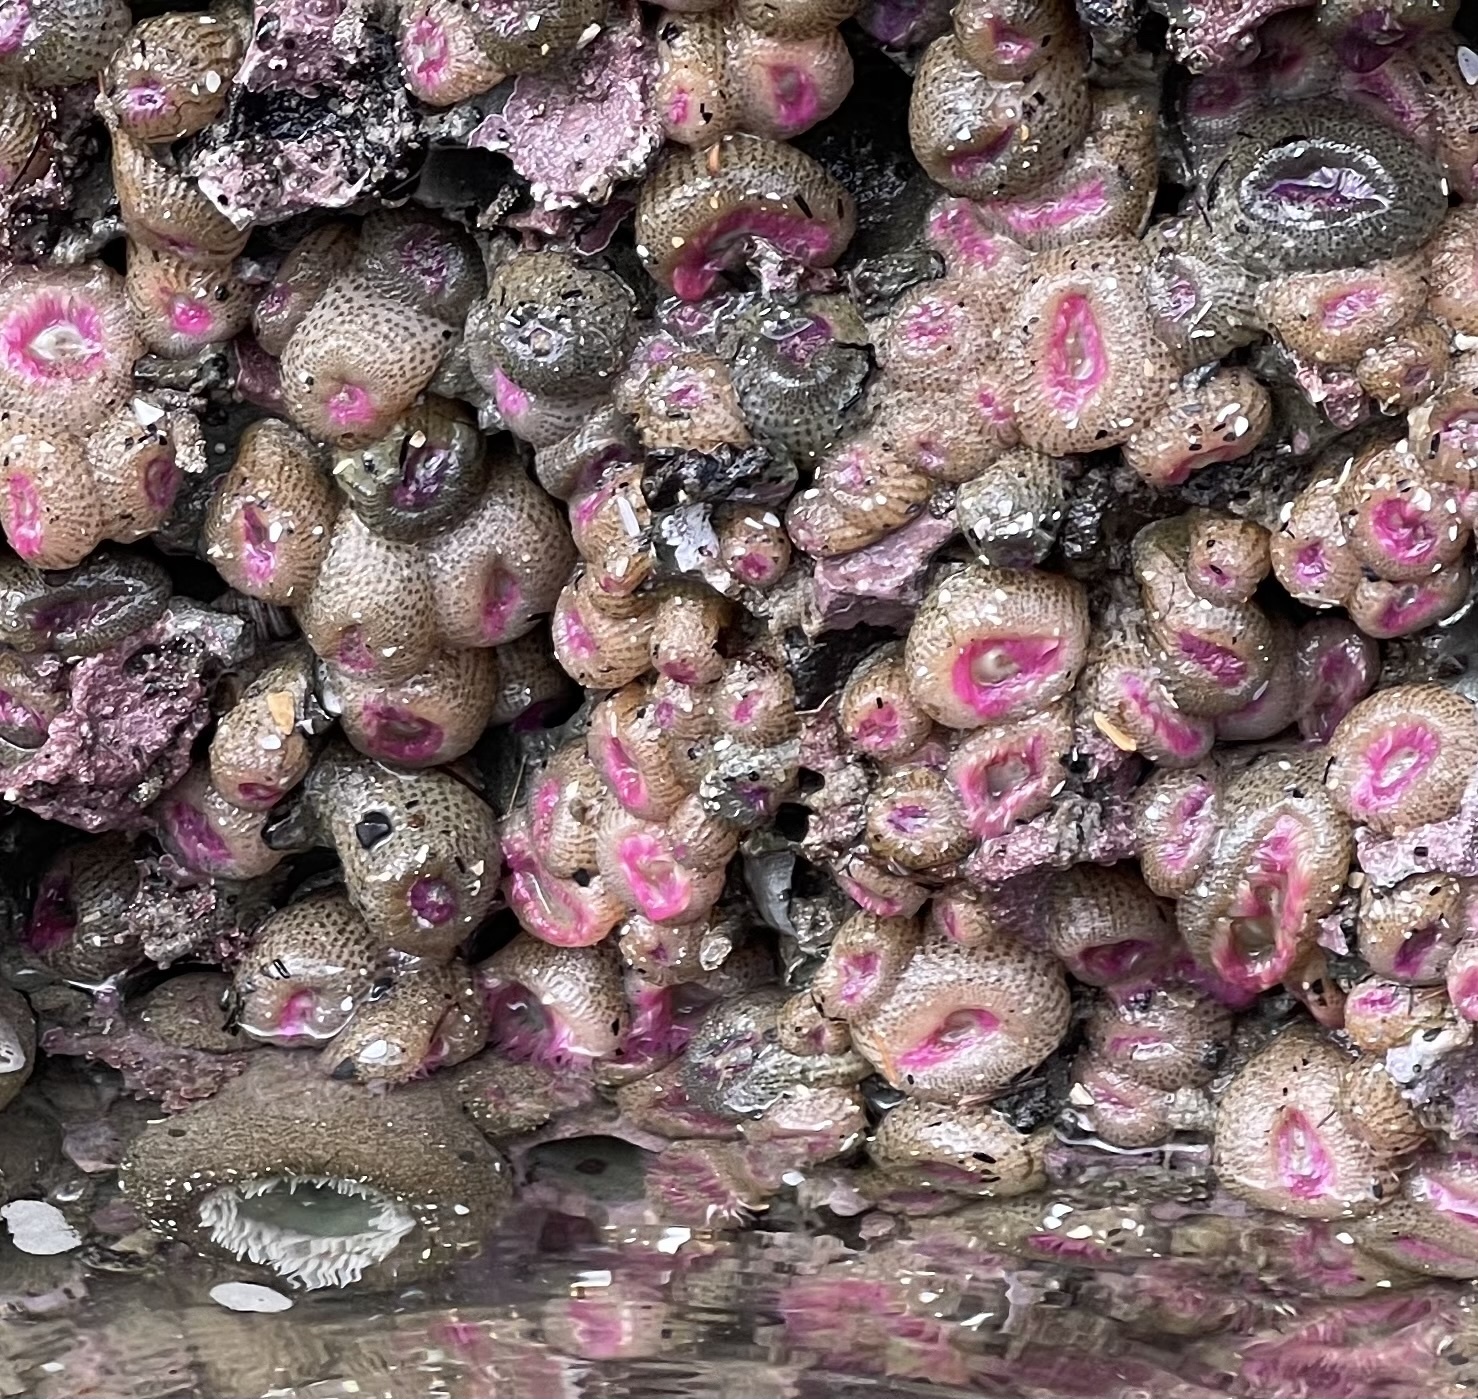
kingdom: Animalia
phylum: Cnidaria
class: Anthozoa
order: Actiniaria
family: Actiniidae
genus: Anthopleura
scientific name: Anthopleura elegantissima
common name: Clonal anemone
